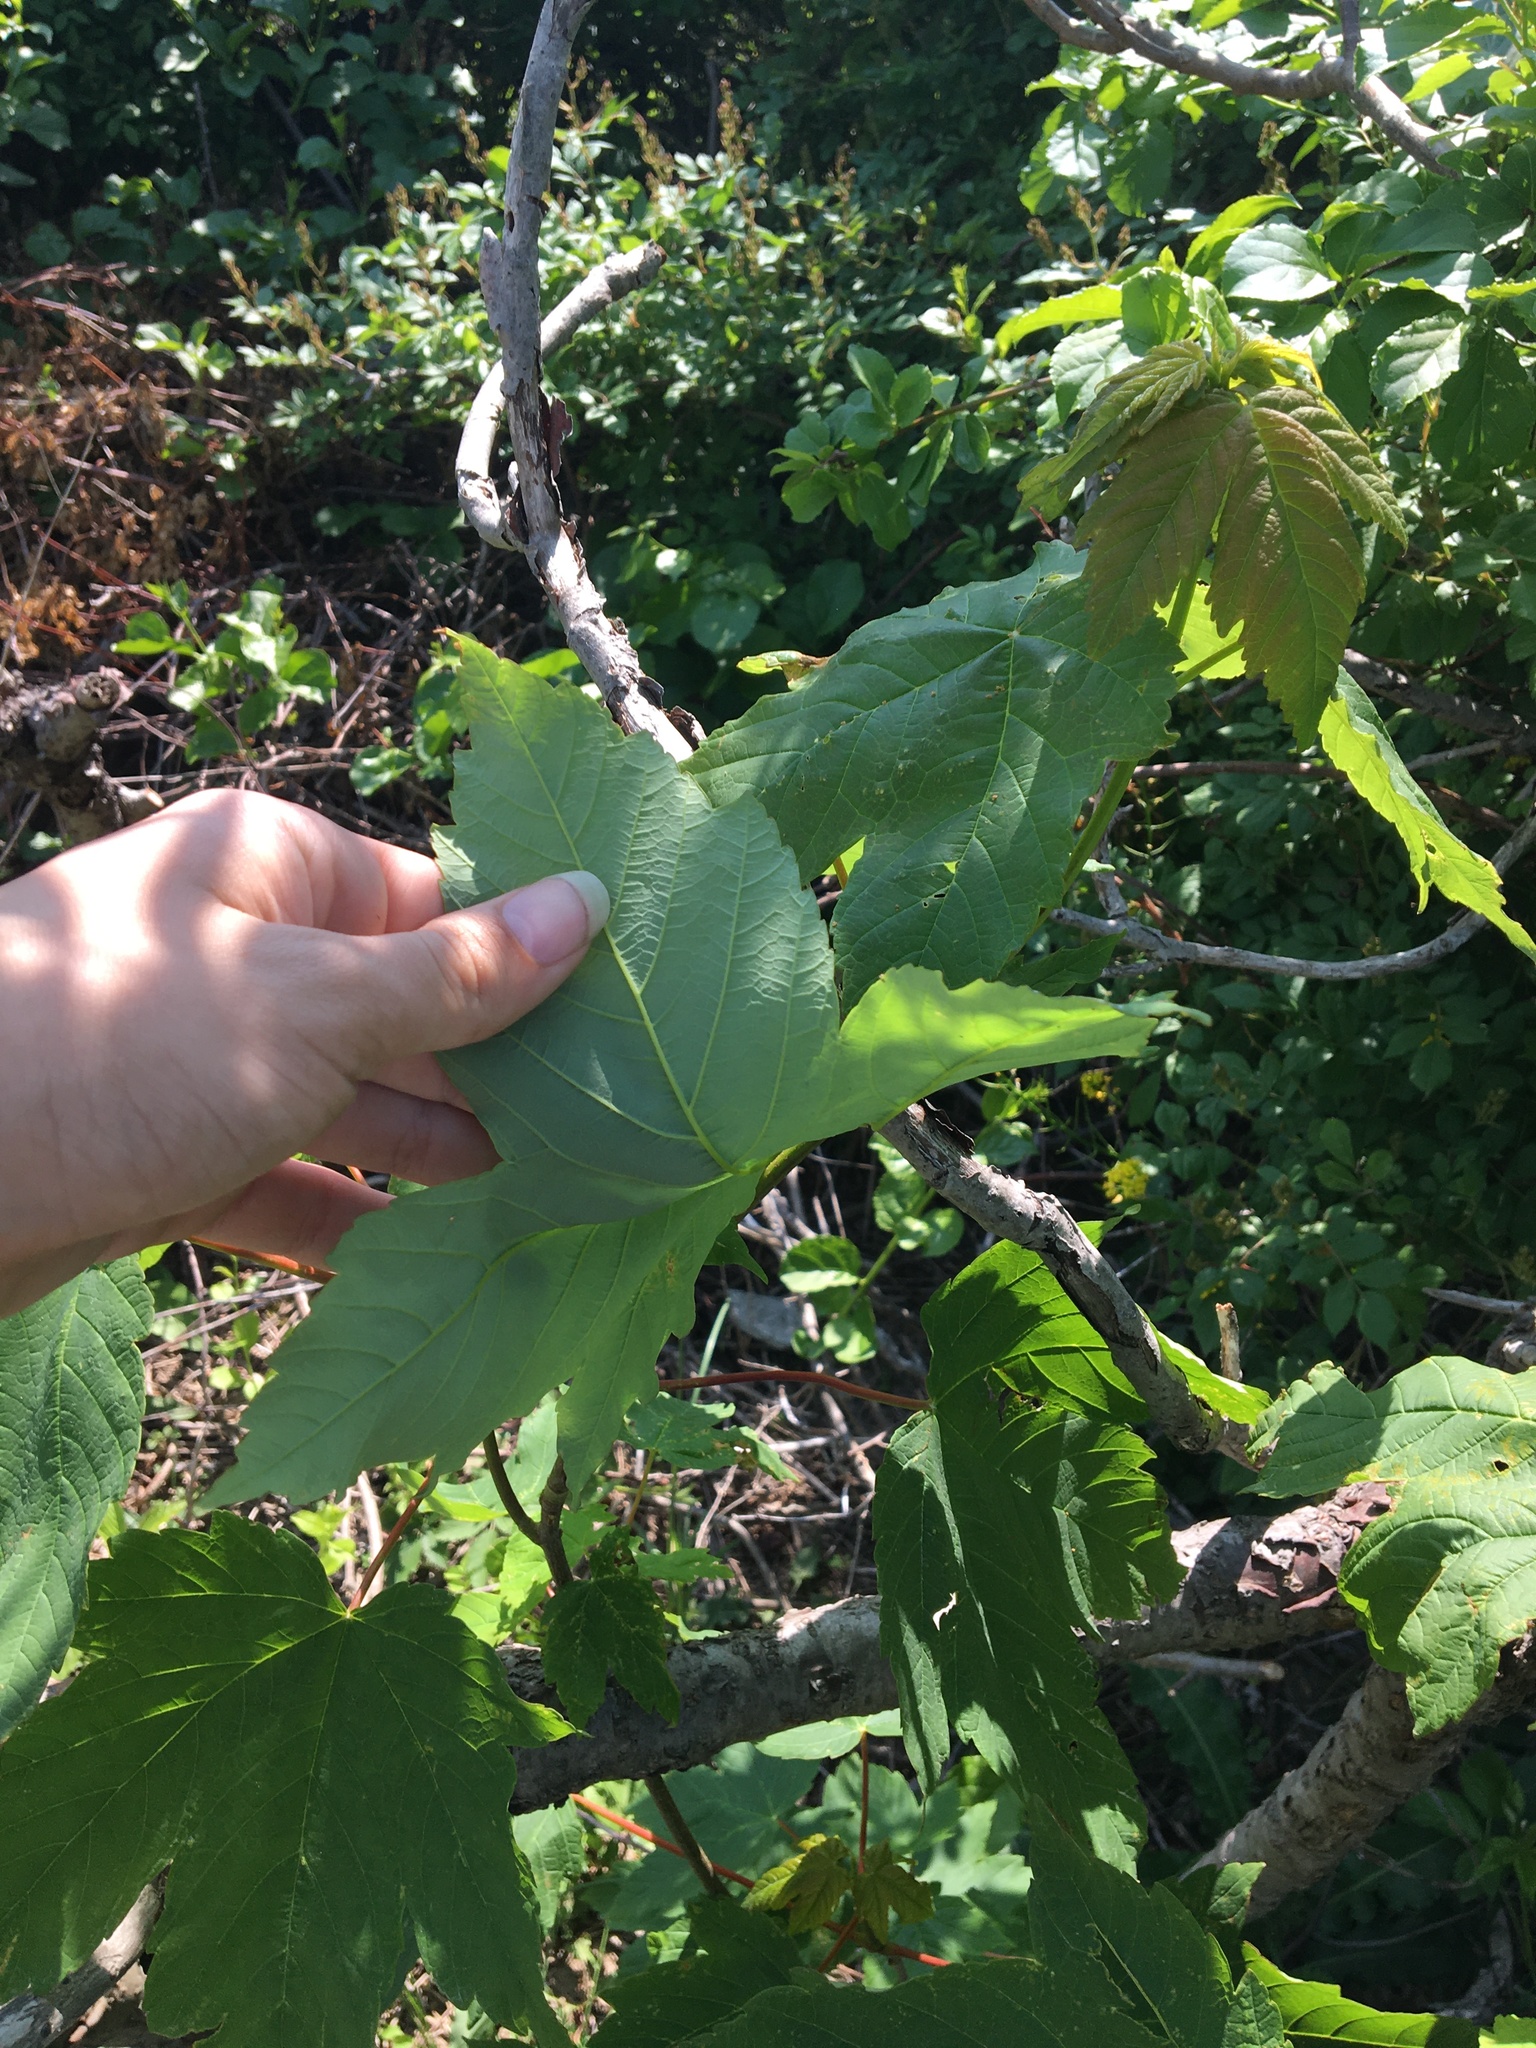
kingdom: Plantae
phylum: Tracheophyta
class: Magnoliopsida
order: Sapindales
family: Sapindaceae
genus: Acer
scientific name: Acer pseudoplatanus
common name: Sycamore
